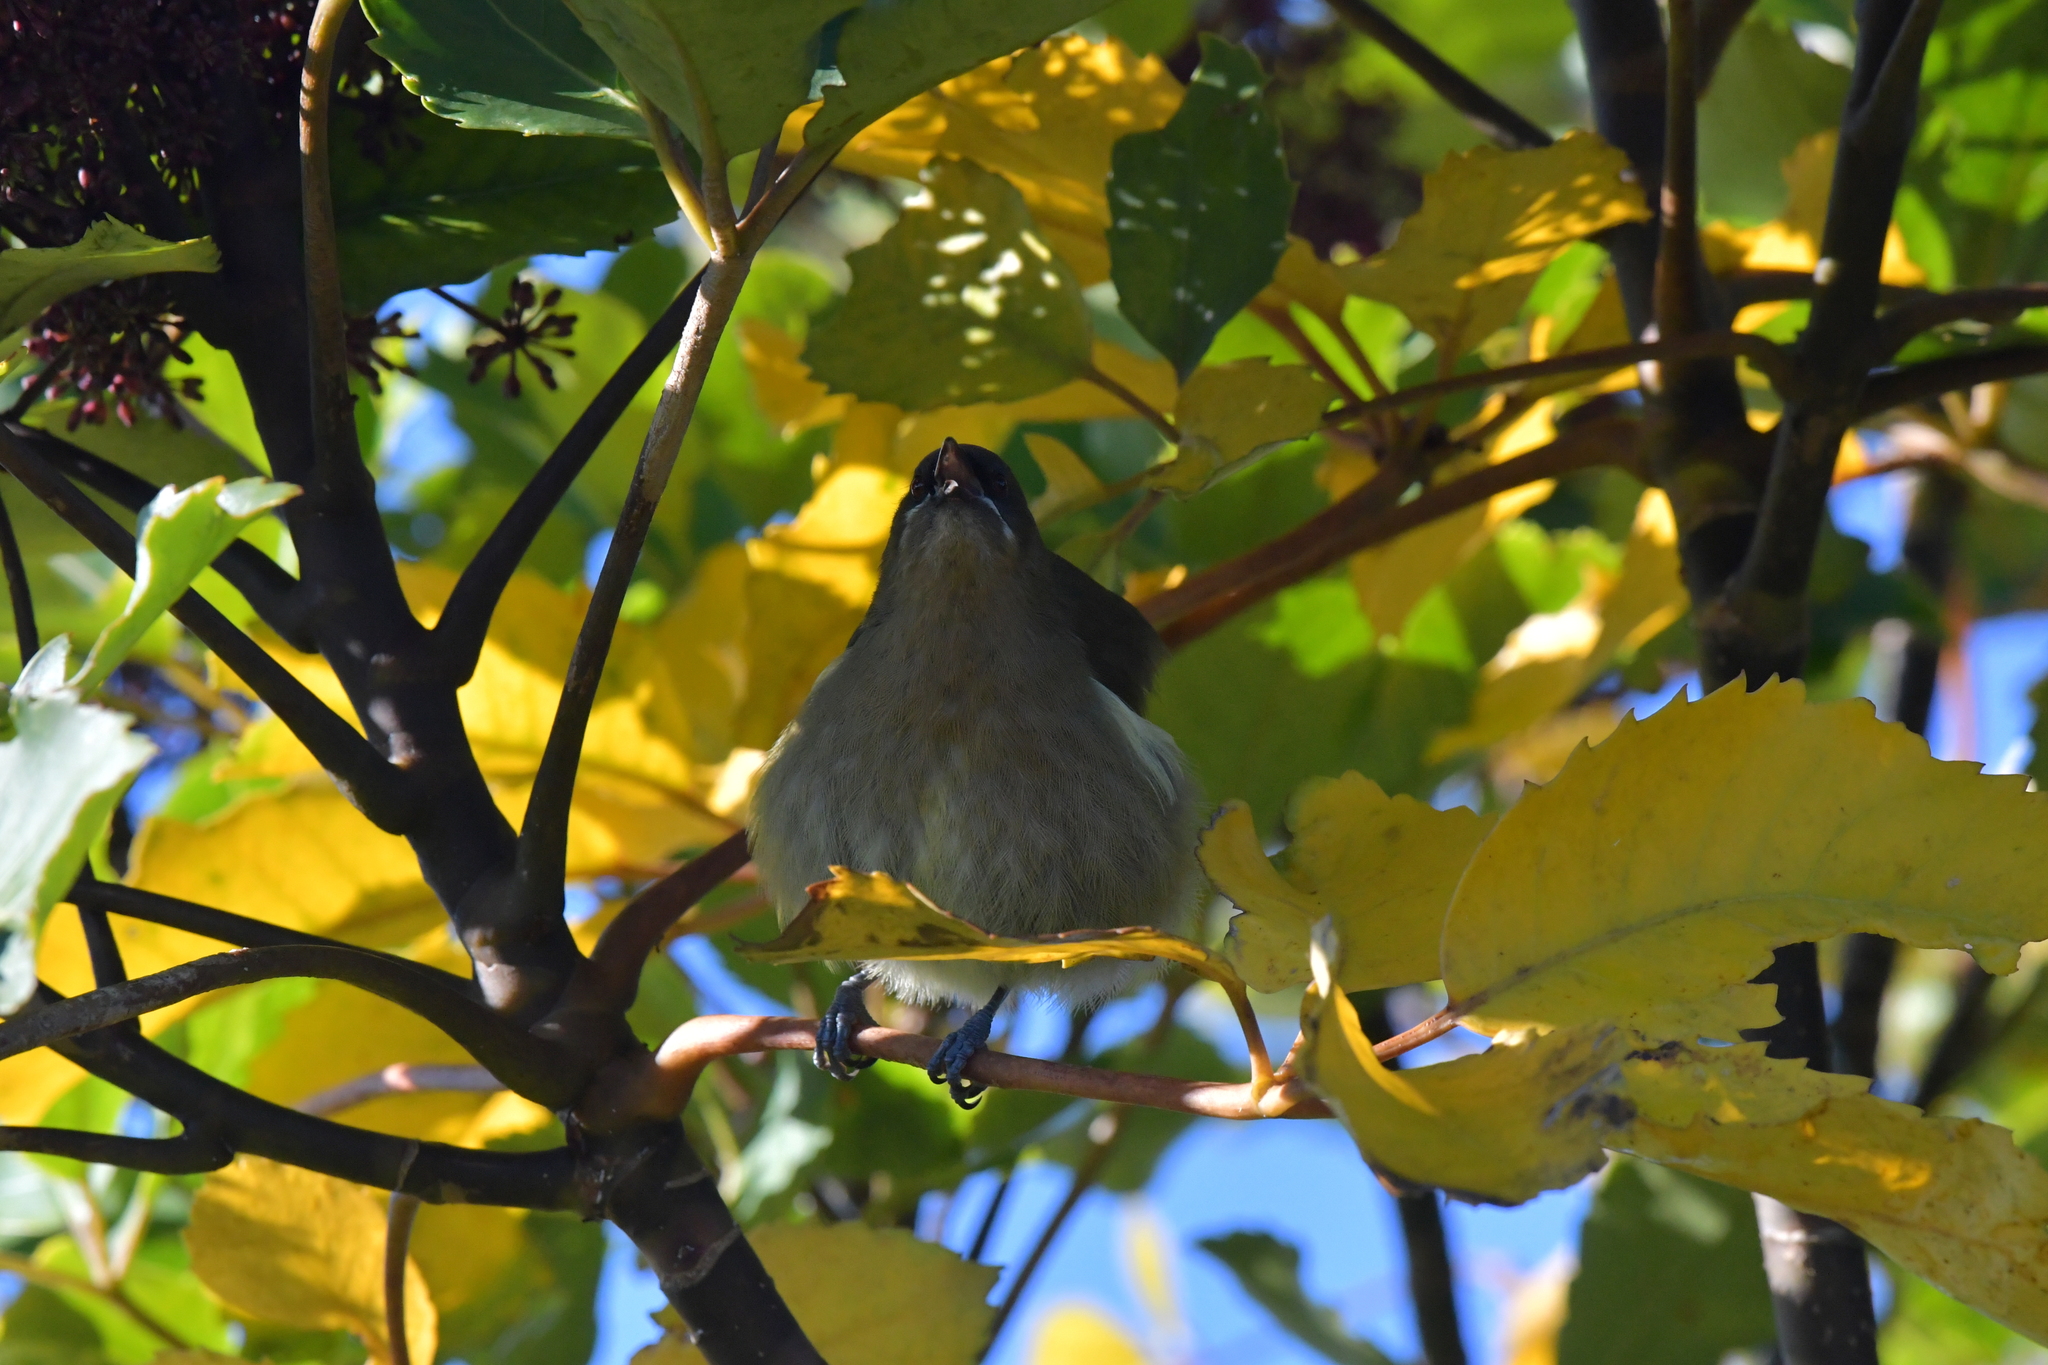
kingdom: Animalia
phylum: Chordata
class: Aves
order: Passeriformes
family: Meliphagidae
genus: Anthornis
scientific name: Anthornis melanura
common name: New zealand bellbird
